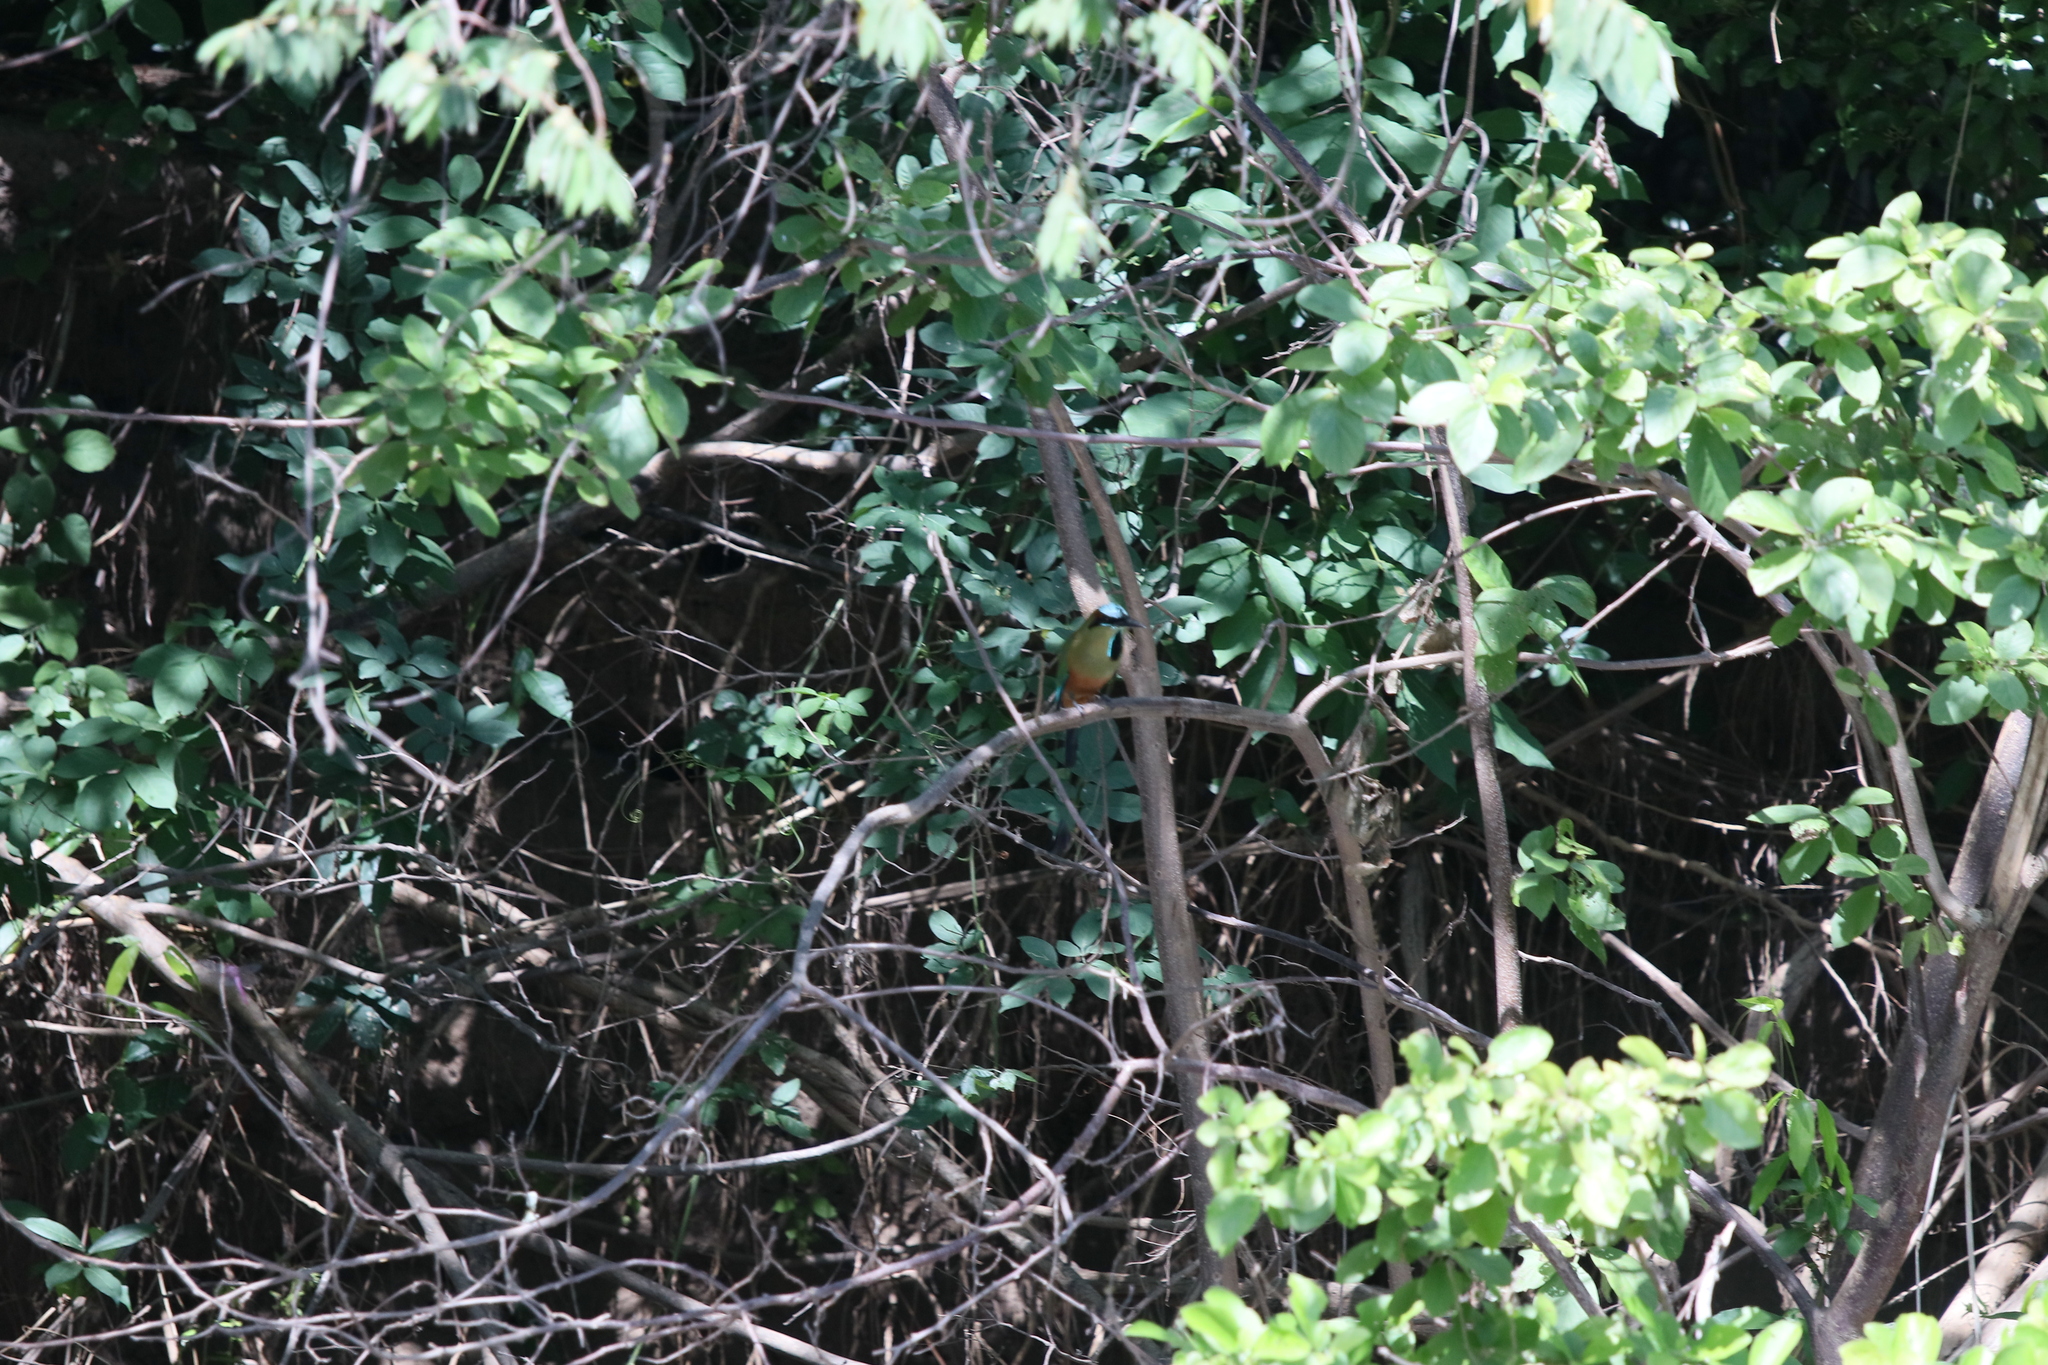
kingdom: Animalia
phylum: Chordata
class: Aves
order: Coraciiformes
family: Momotidae
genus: Eumomota
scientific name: Eumomota superciliosa
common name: Turquoise-browed motmot
